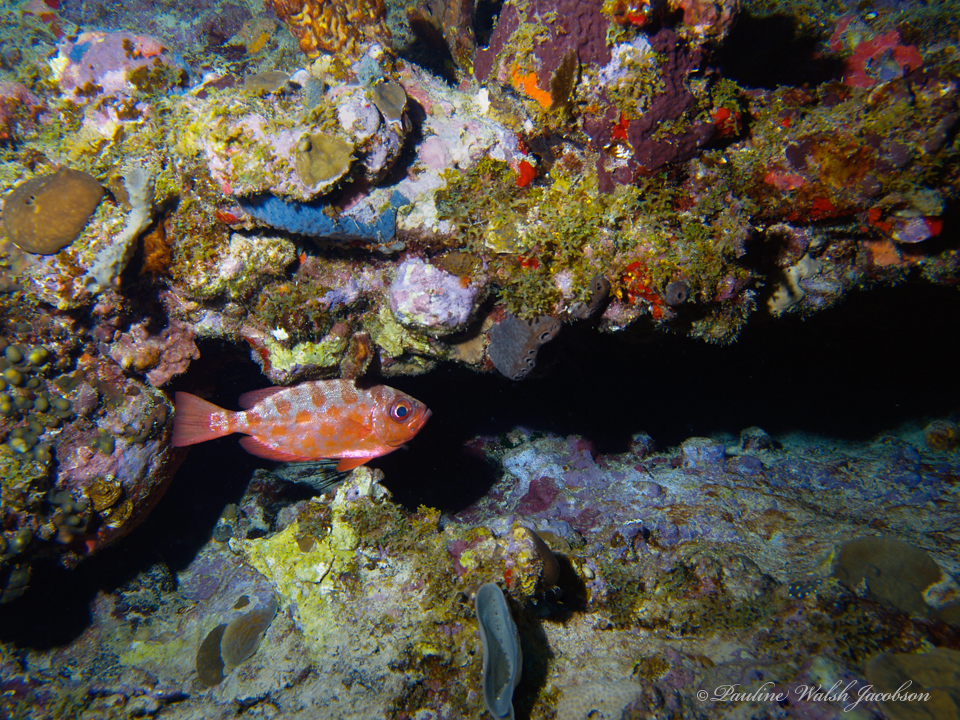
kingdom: Animalia
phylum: Chordata
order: Perciformes
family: Priacanthidae
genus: Heteropriacanthus
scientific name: Heteropriacanthus cruentatus
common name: Glasseye
